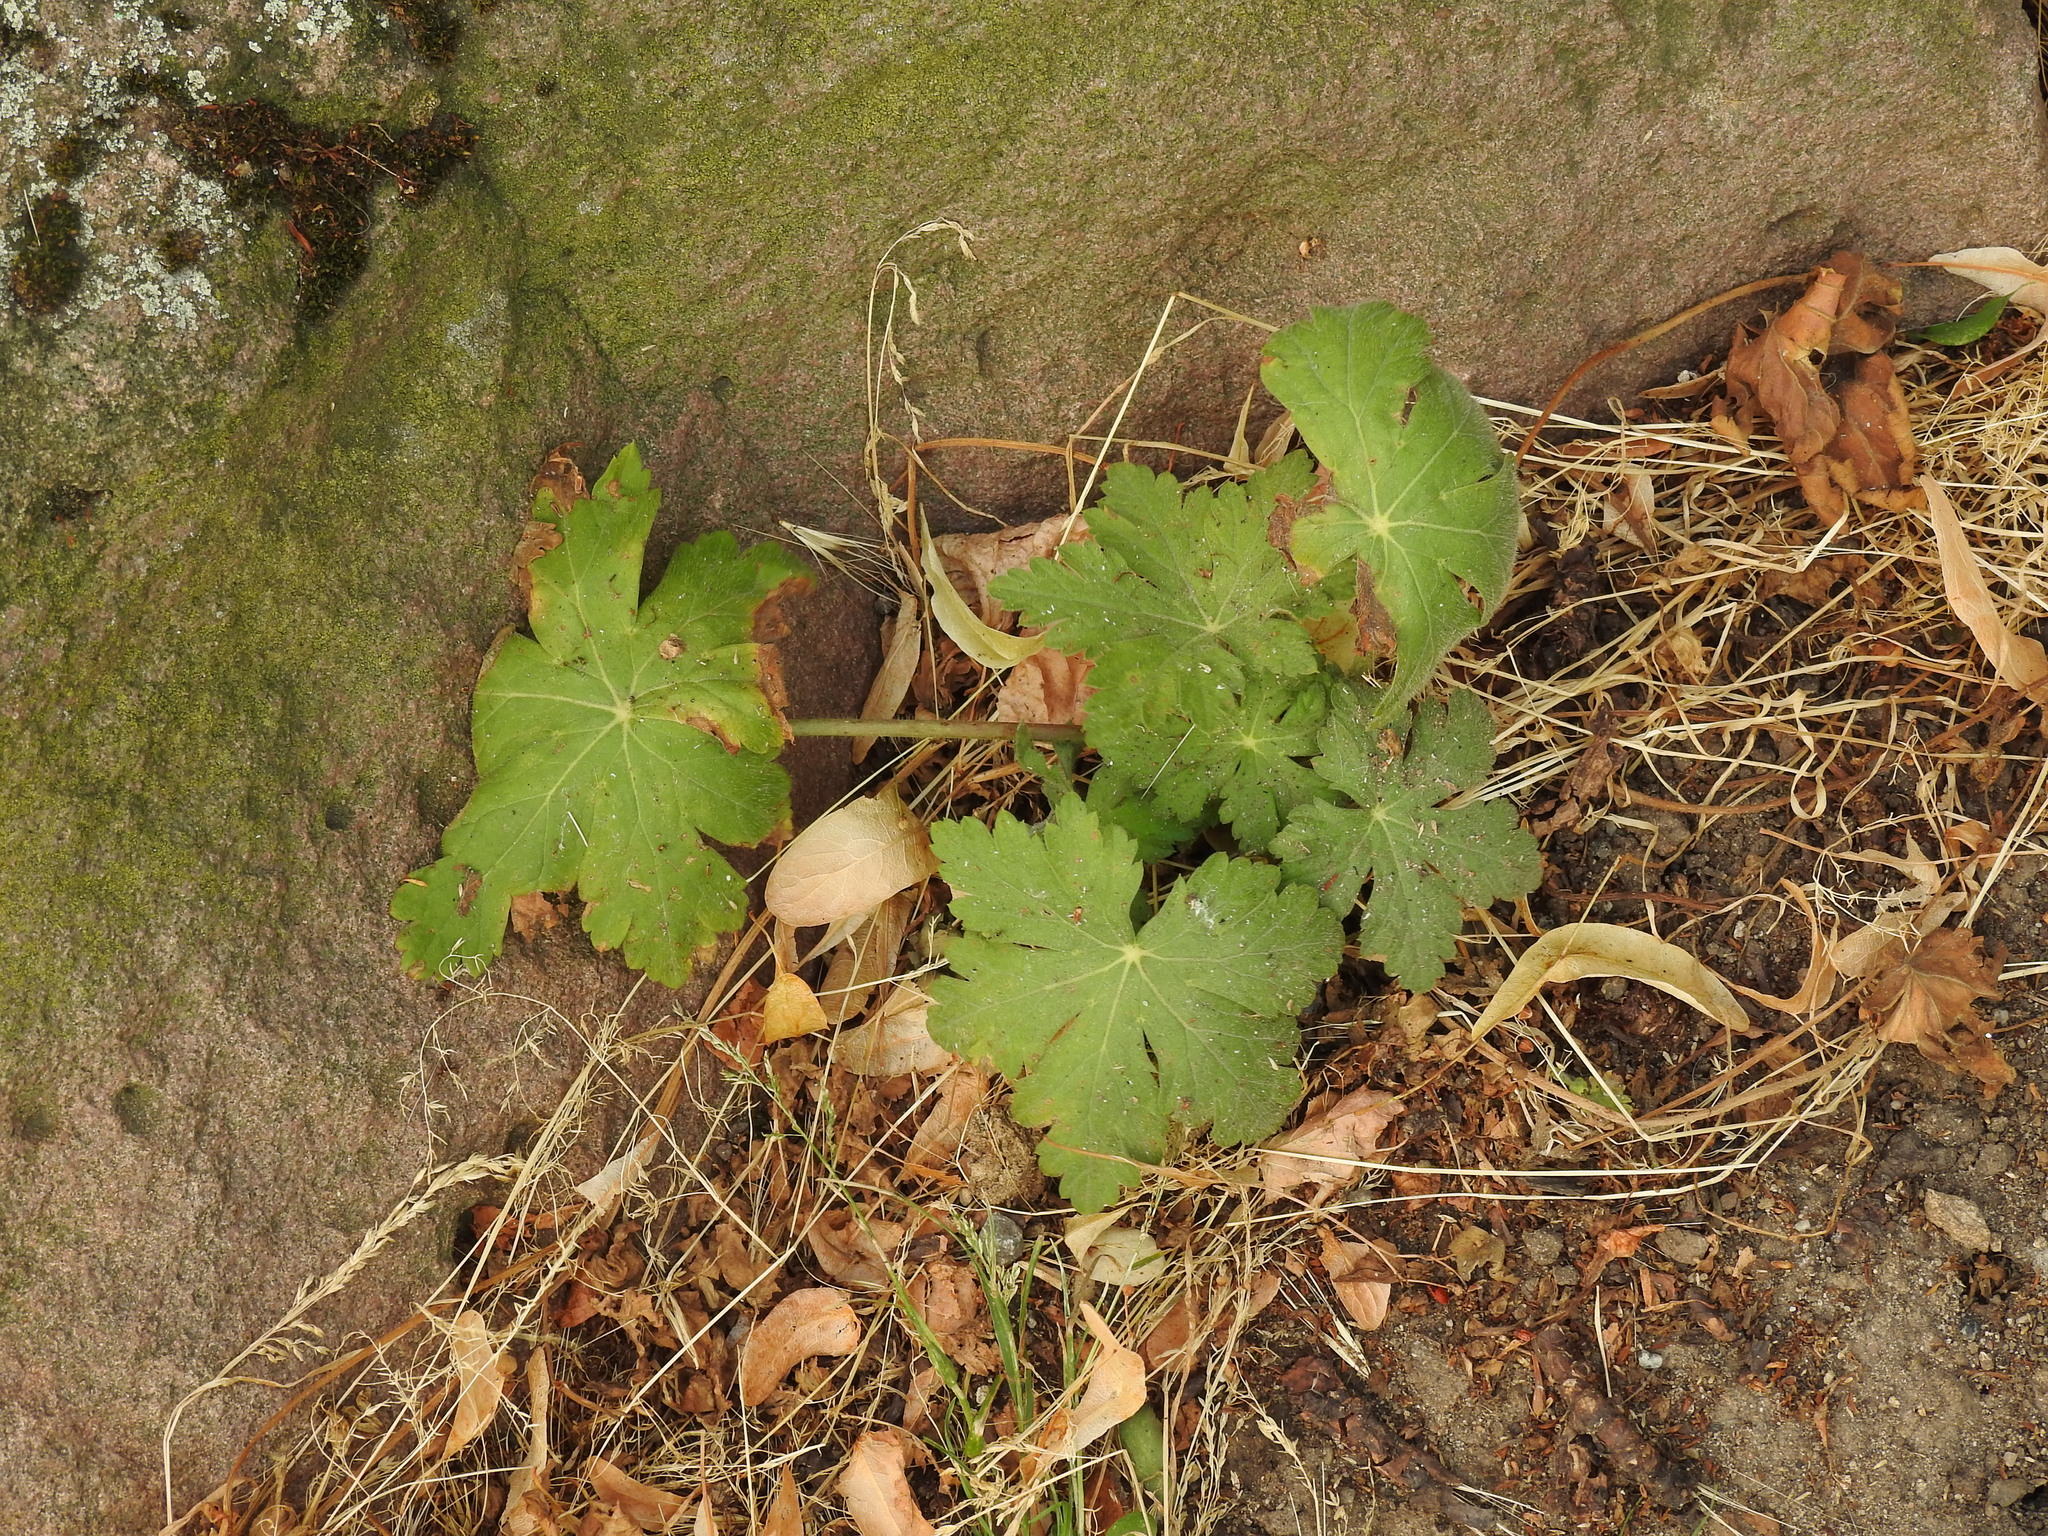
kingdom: Plantae
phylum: Tracheophyta
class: Magnoliopsida
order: Geraniales
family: Geraniaceae
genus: Geranium
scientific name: Geranium macrorrhizum
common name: Rock crane's-bill
